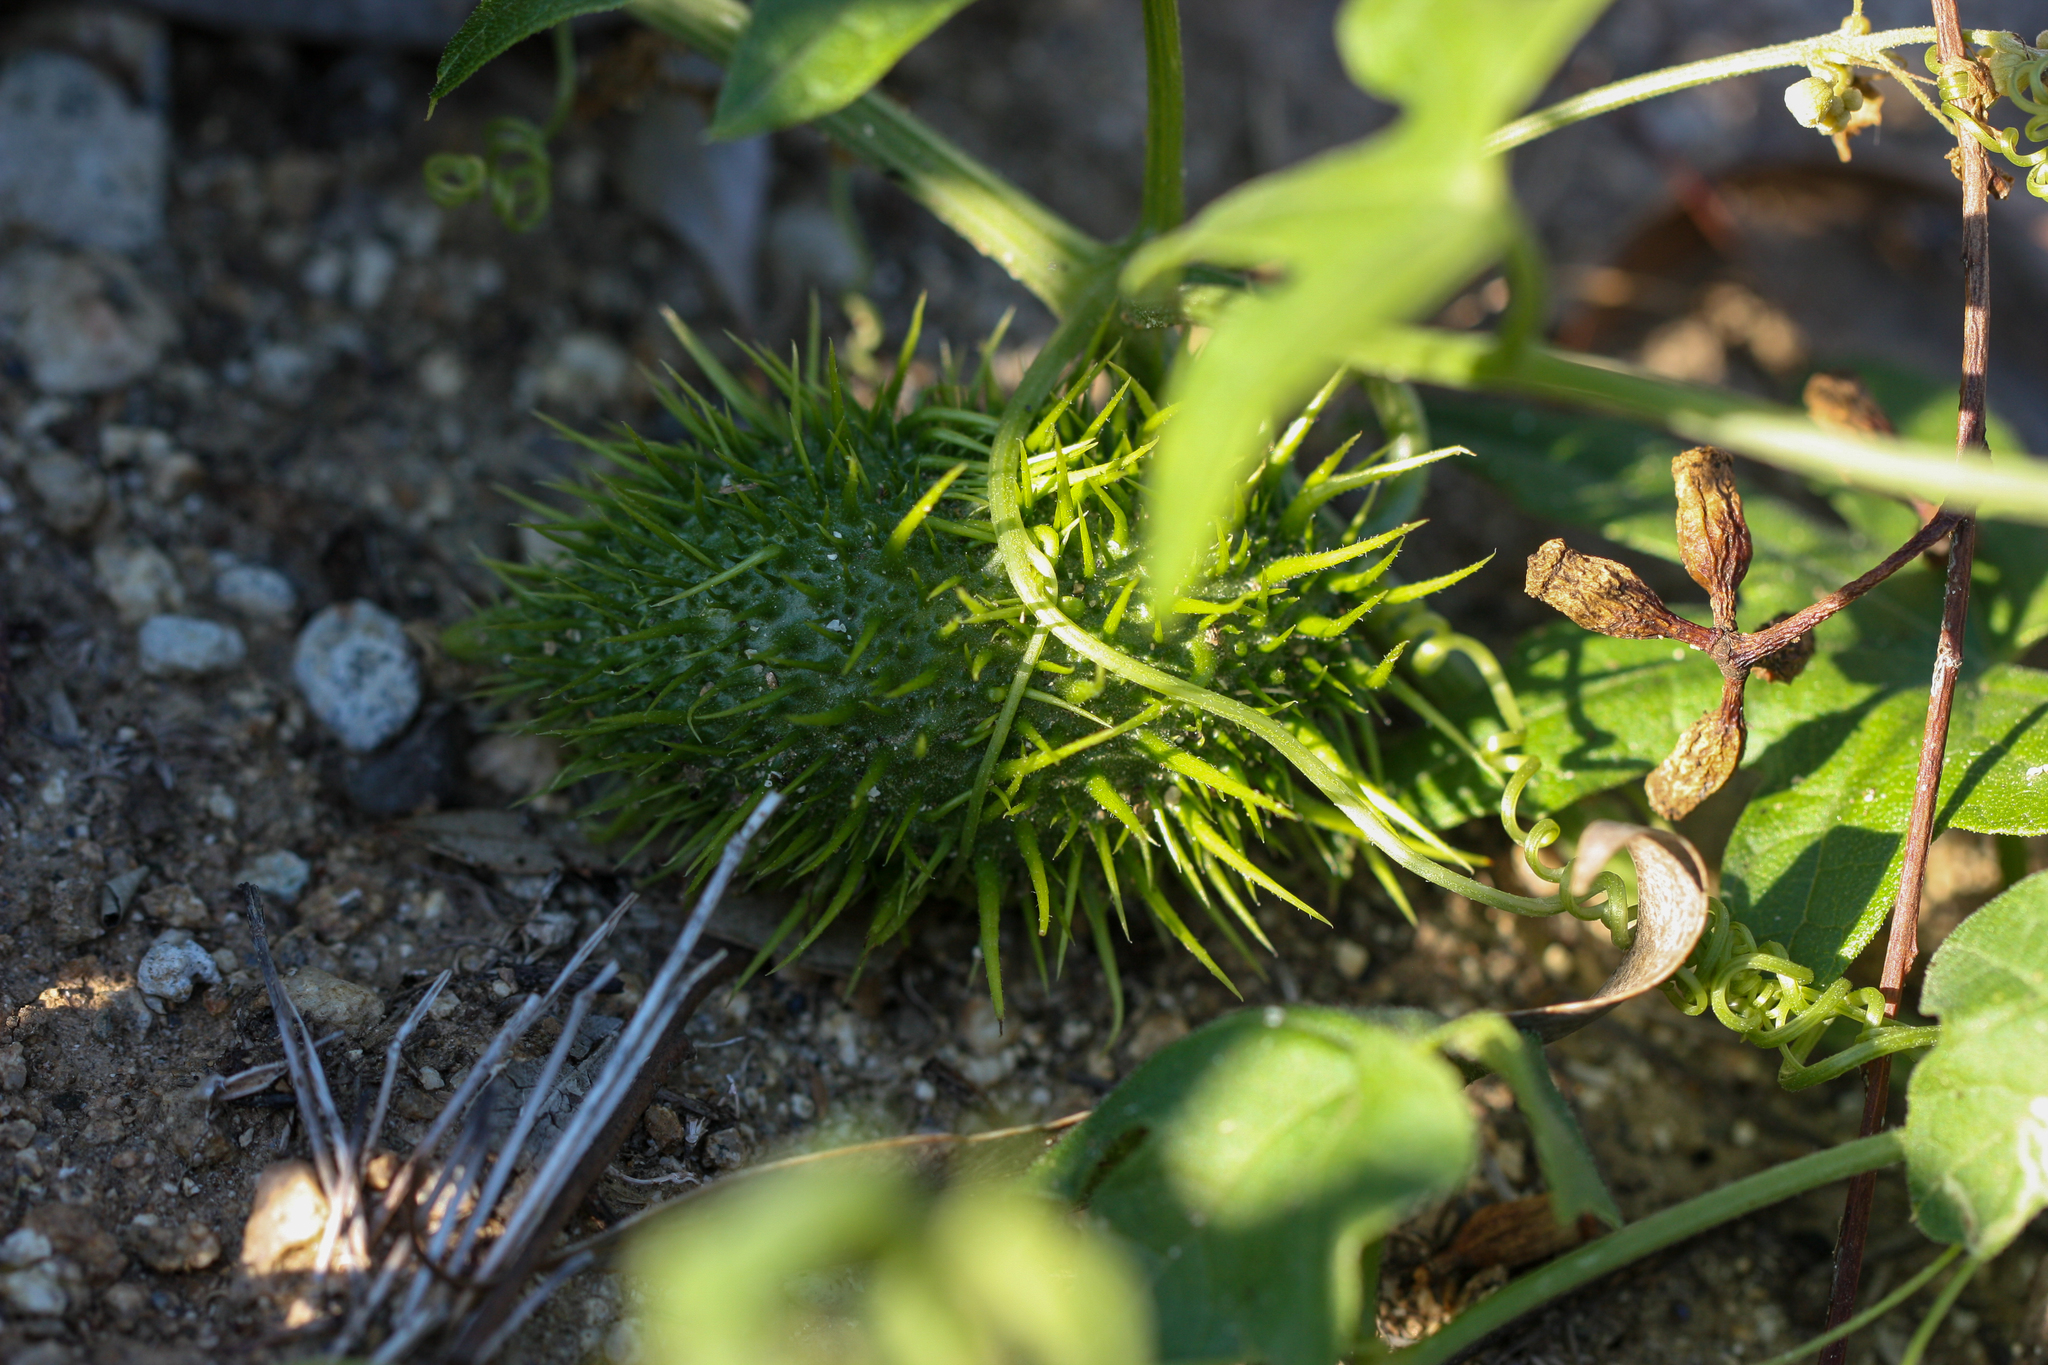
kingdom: Plantae
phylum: Tracheophyta
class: Magnoliopsida
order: Cucurbitales
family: Cucurbitaceae
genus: Marah
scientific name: Marah macrocarpa
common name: Cucamonga manroot
